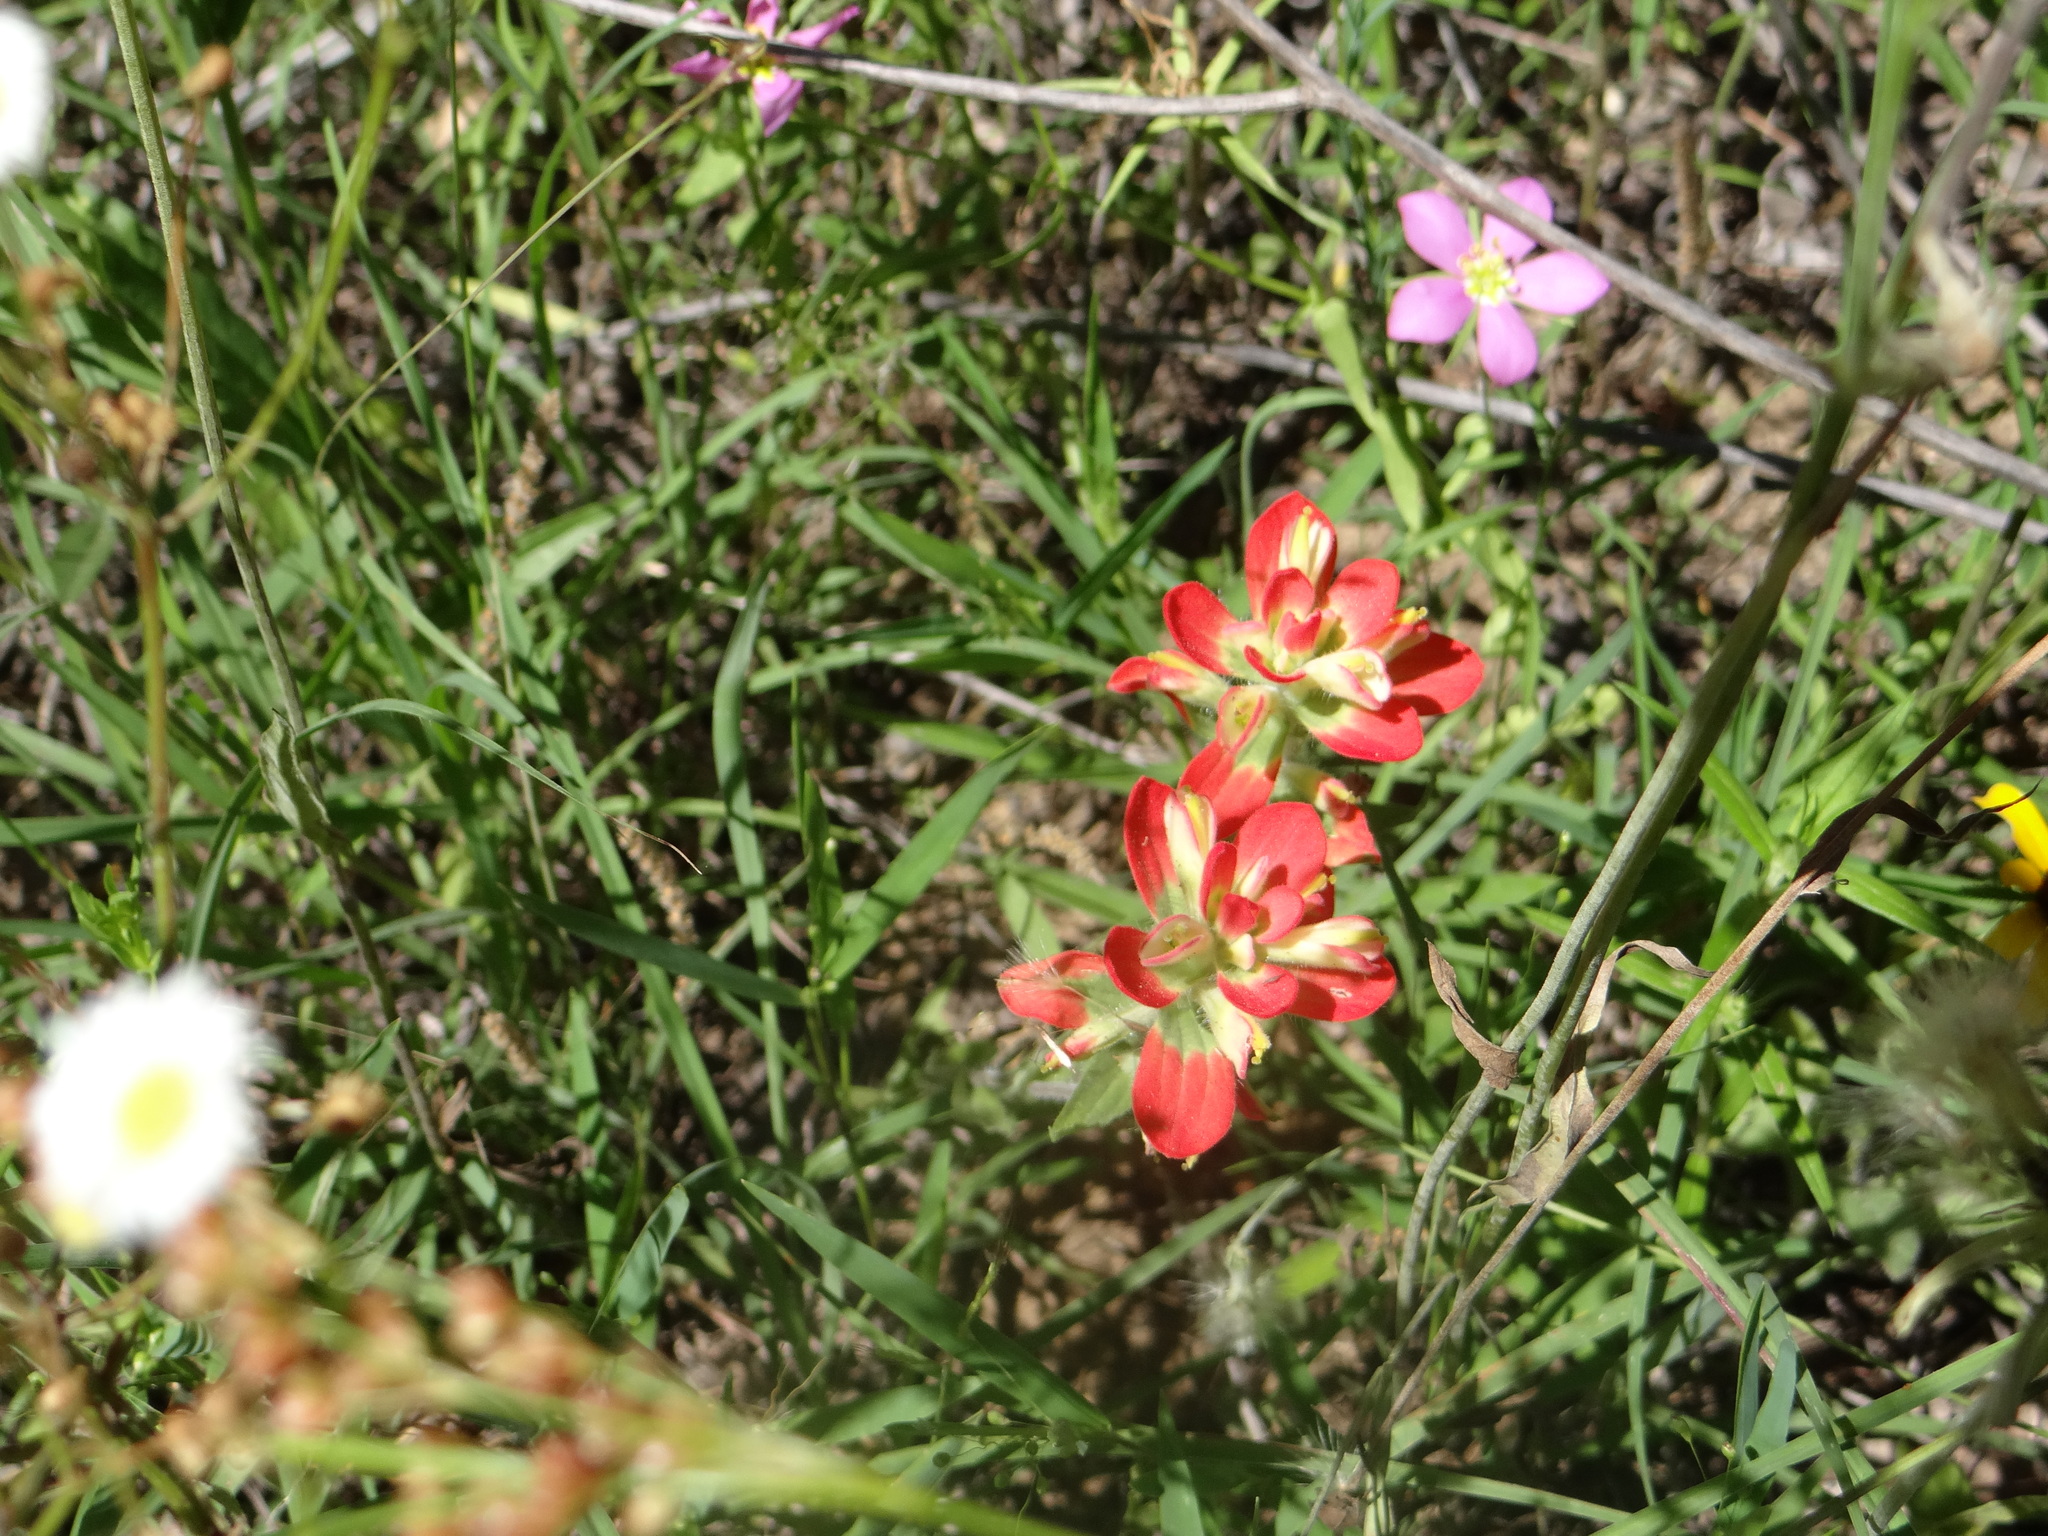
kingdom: Plantae
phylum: Tracheophyta
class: Magnoliopsida
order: Lamiales
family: Orobanchaceae
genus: Castilleja
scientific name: Castilleja indivisa
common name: Texas paintbrush
